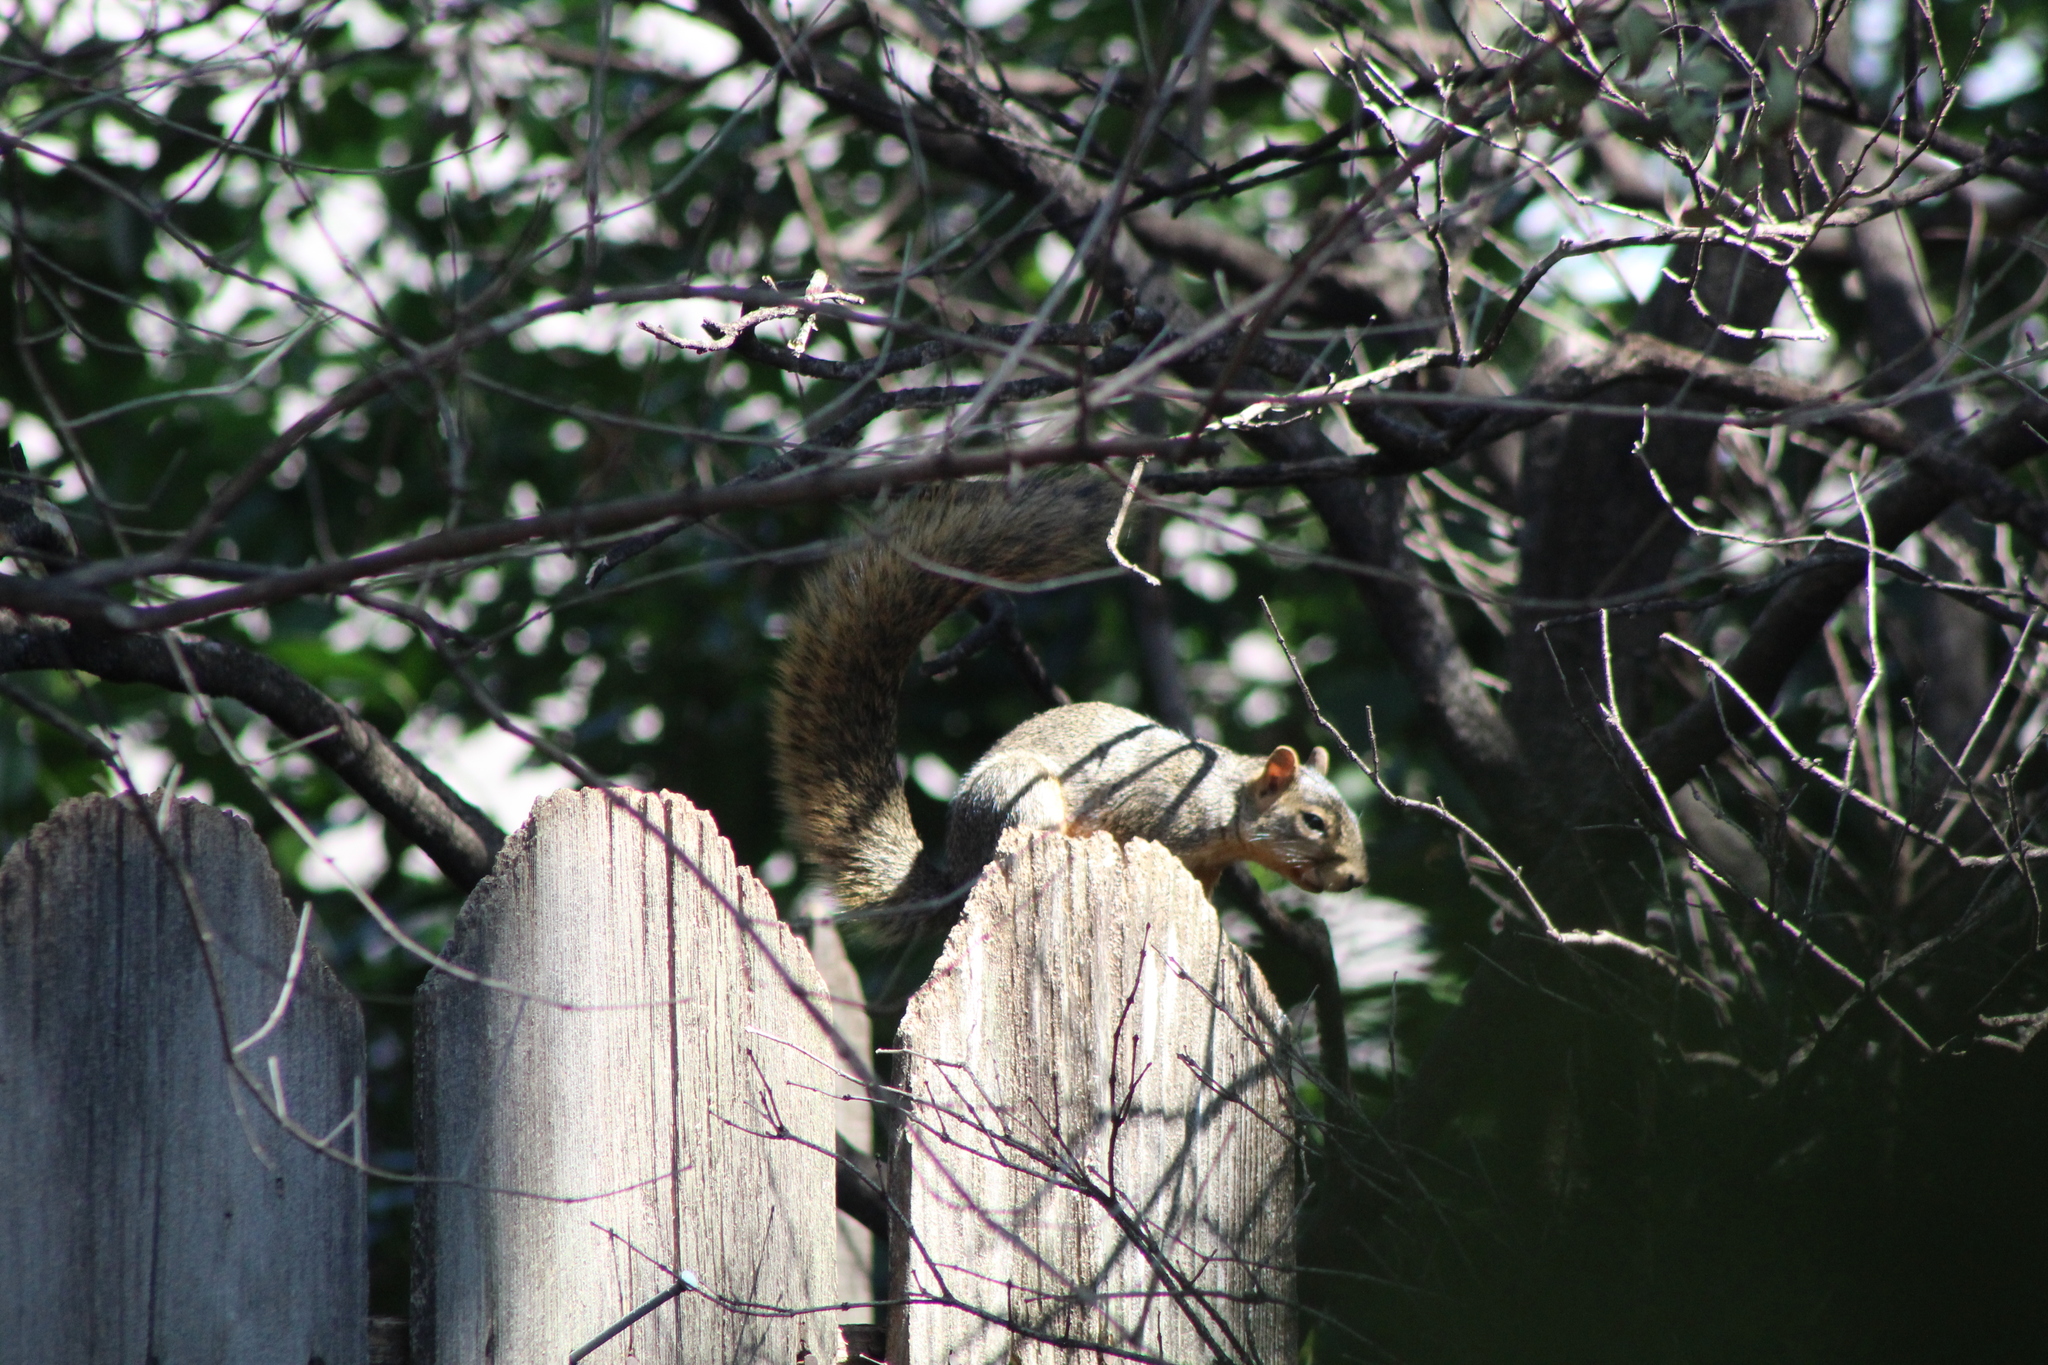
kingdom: Animalia
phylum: Chordata
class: Mammalia
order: Rodentia
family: Sciuridae
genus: Sciurus
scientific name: Sciurus niger
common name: Fox squirrel
